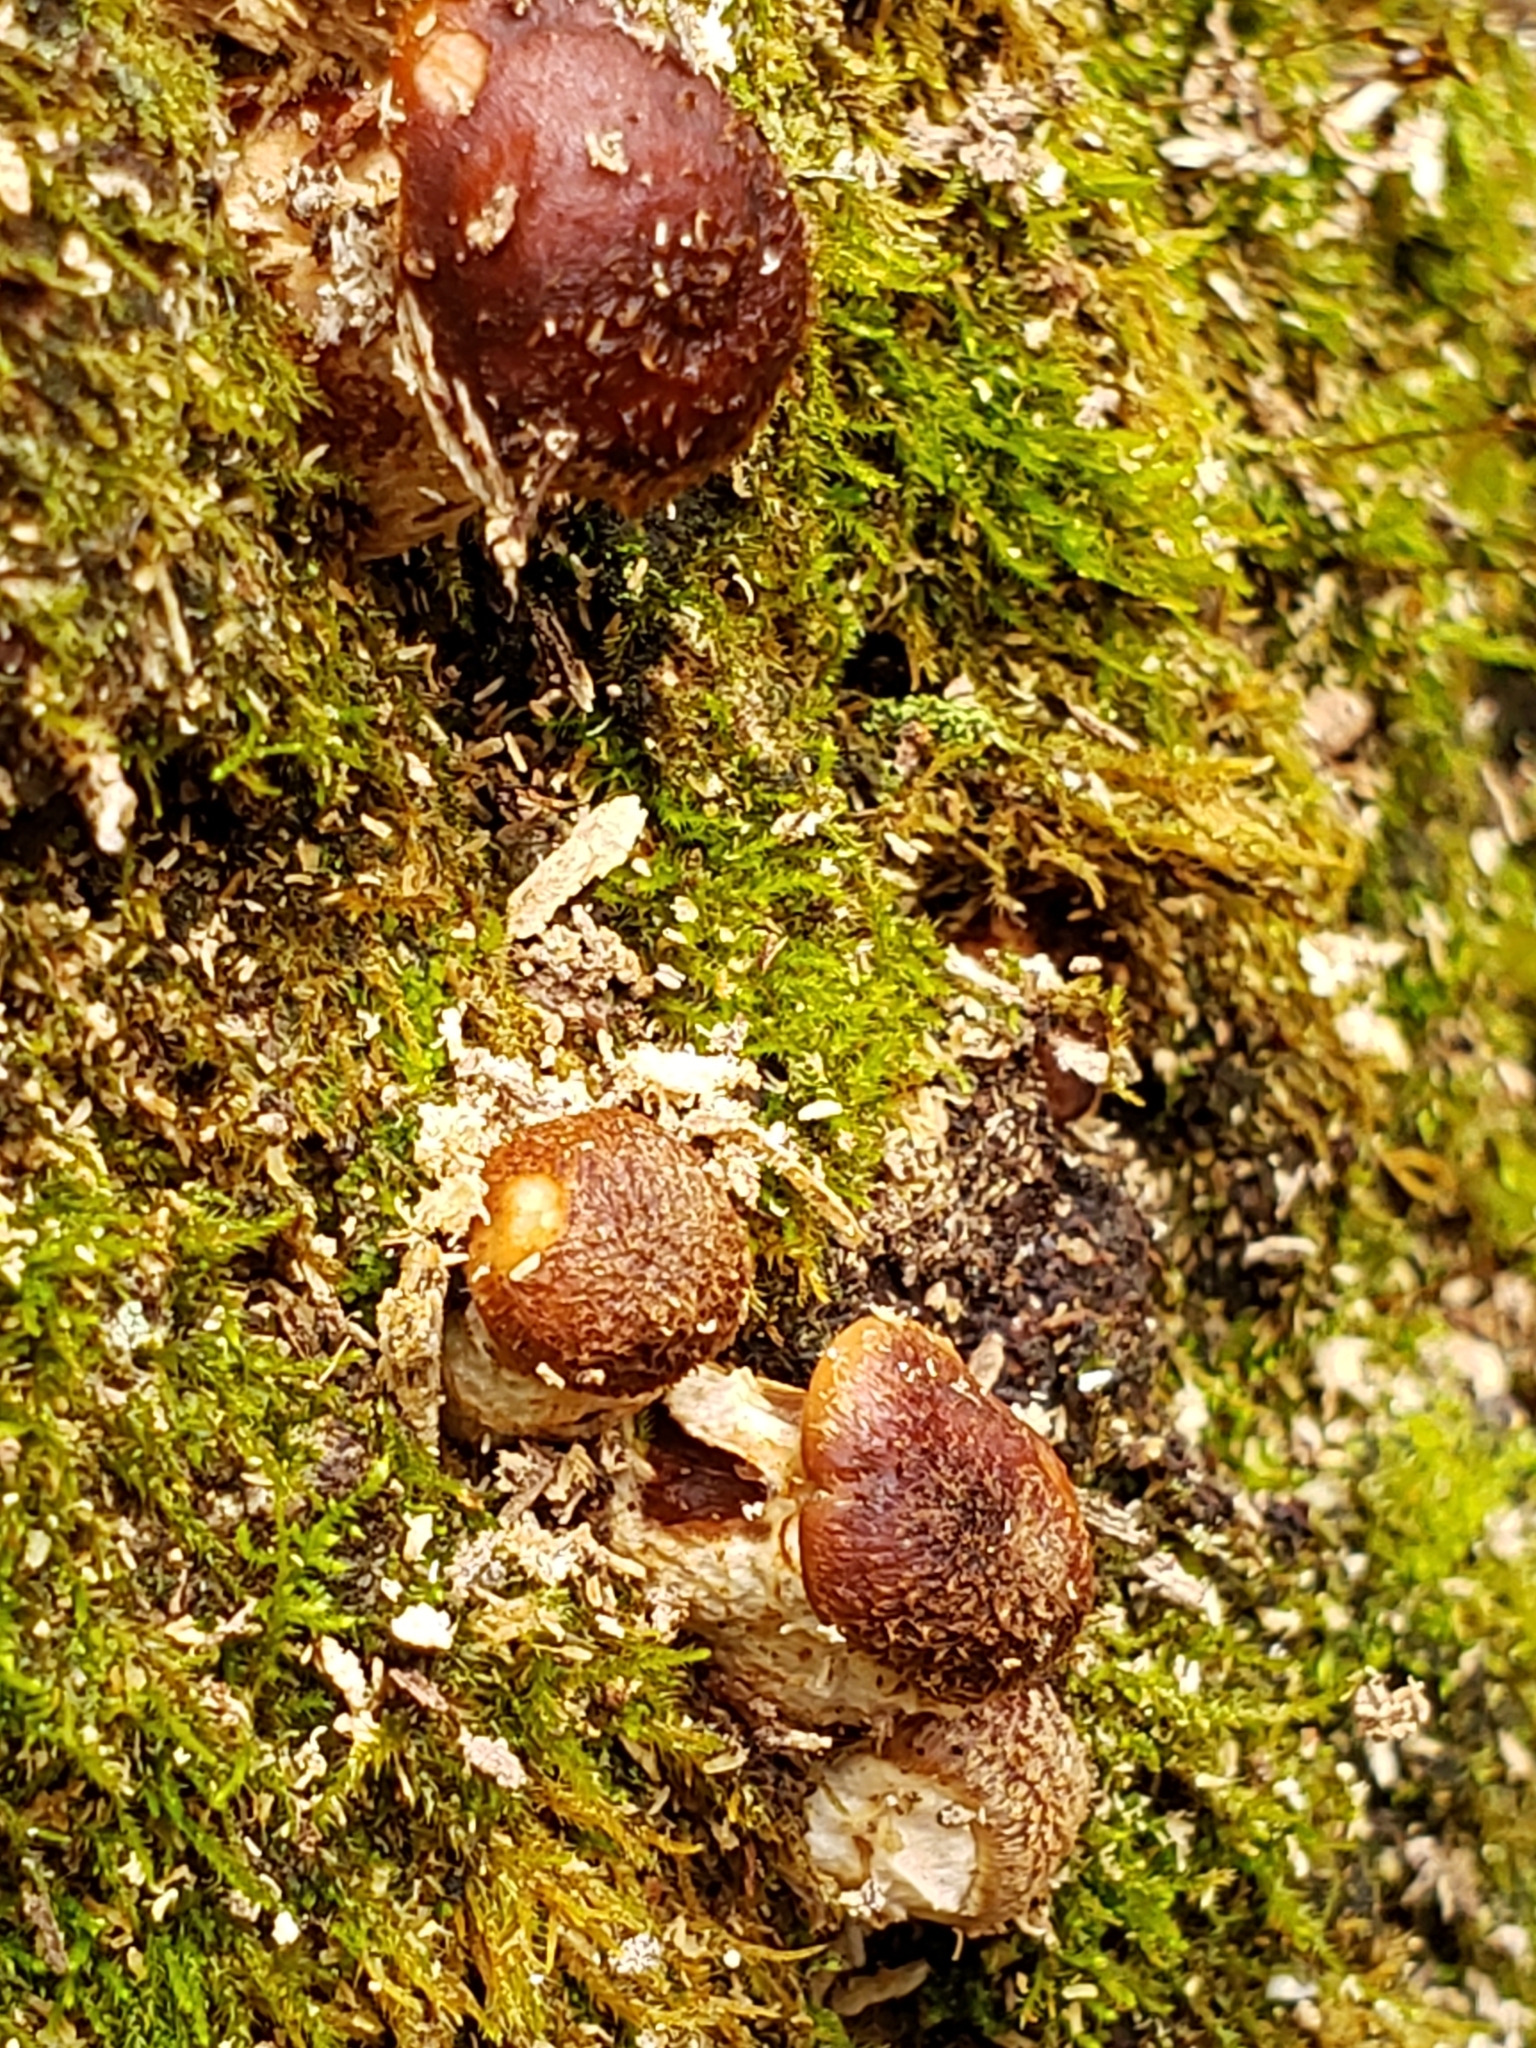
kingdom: Fungi
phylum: Basidiomycota
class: Agaricomycetes
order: Agaricales
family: Physalacriaceae
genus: Armillaria
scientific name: Armillaria sinapina
